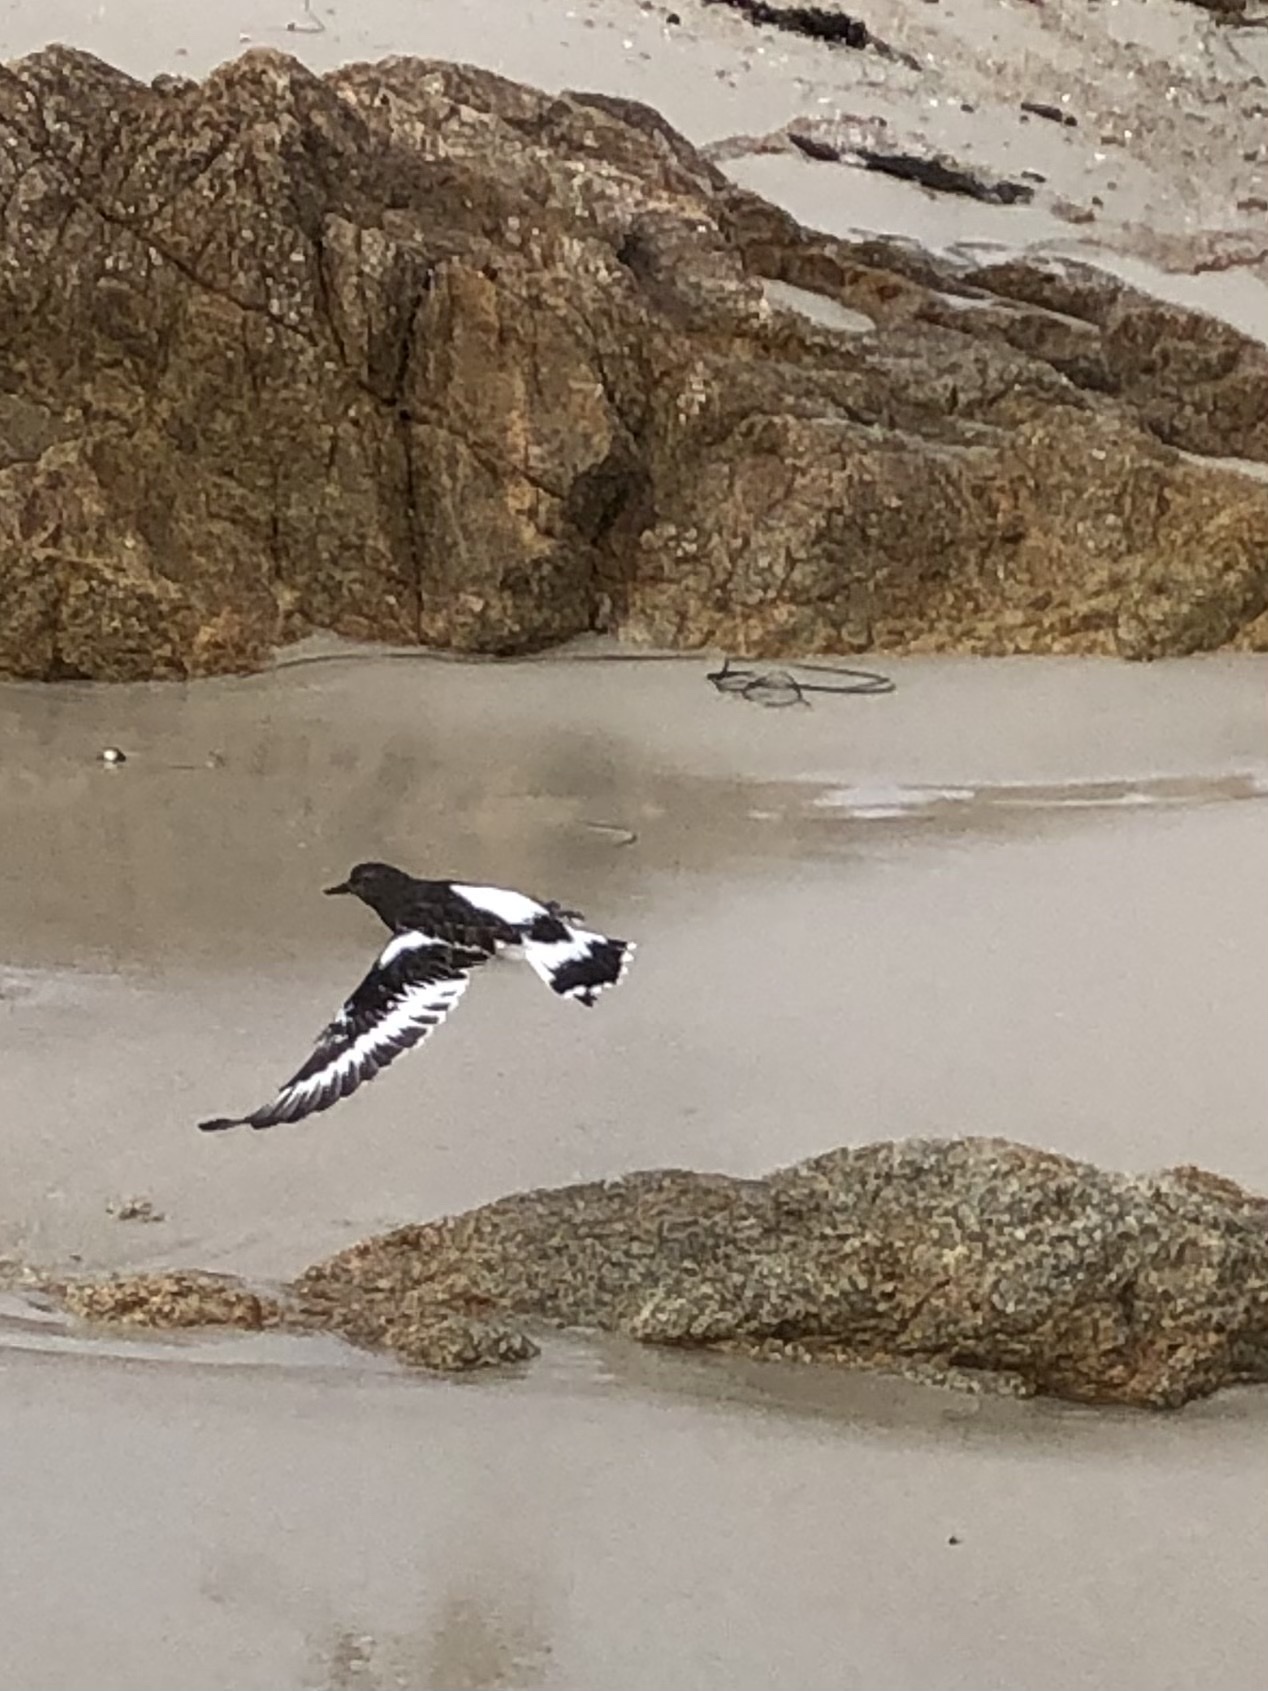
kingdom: Animalia
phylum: Chordata
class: Aves
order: Charadriiformes
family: Scolopacidae
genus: Arenaria
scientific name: Arenaria melanocephala
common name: Black turnstone
